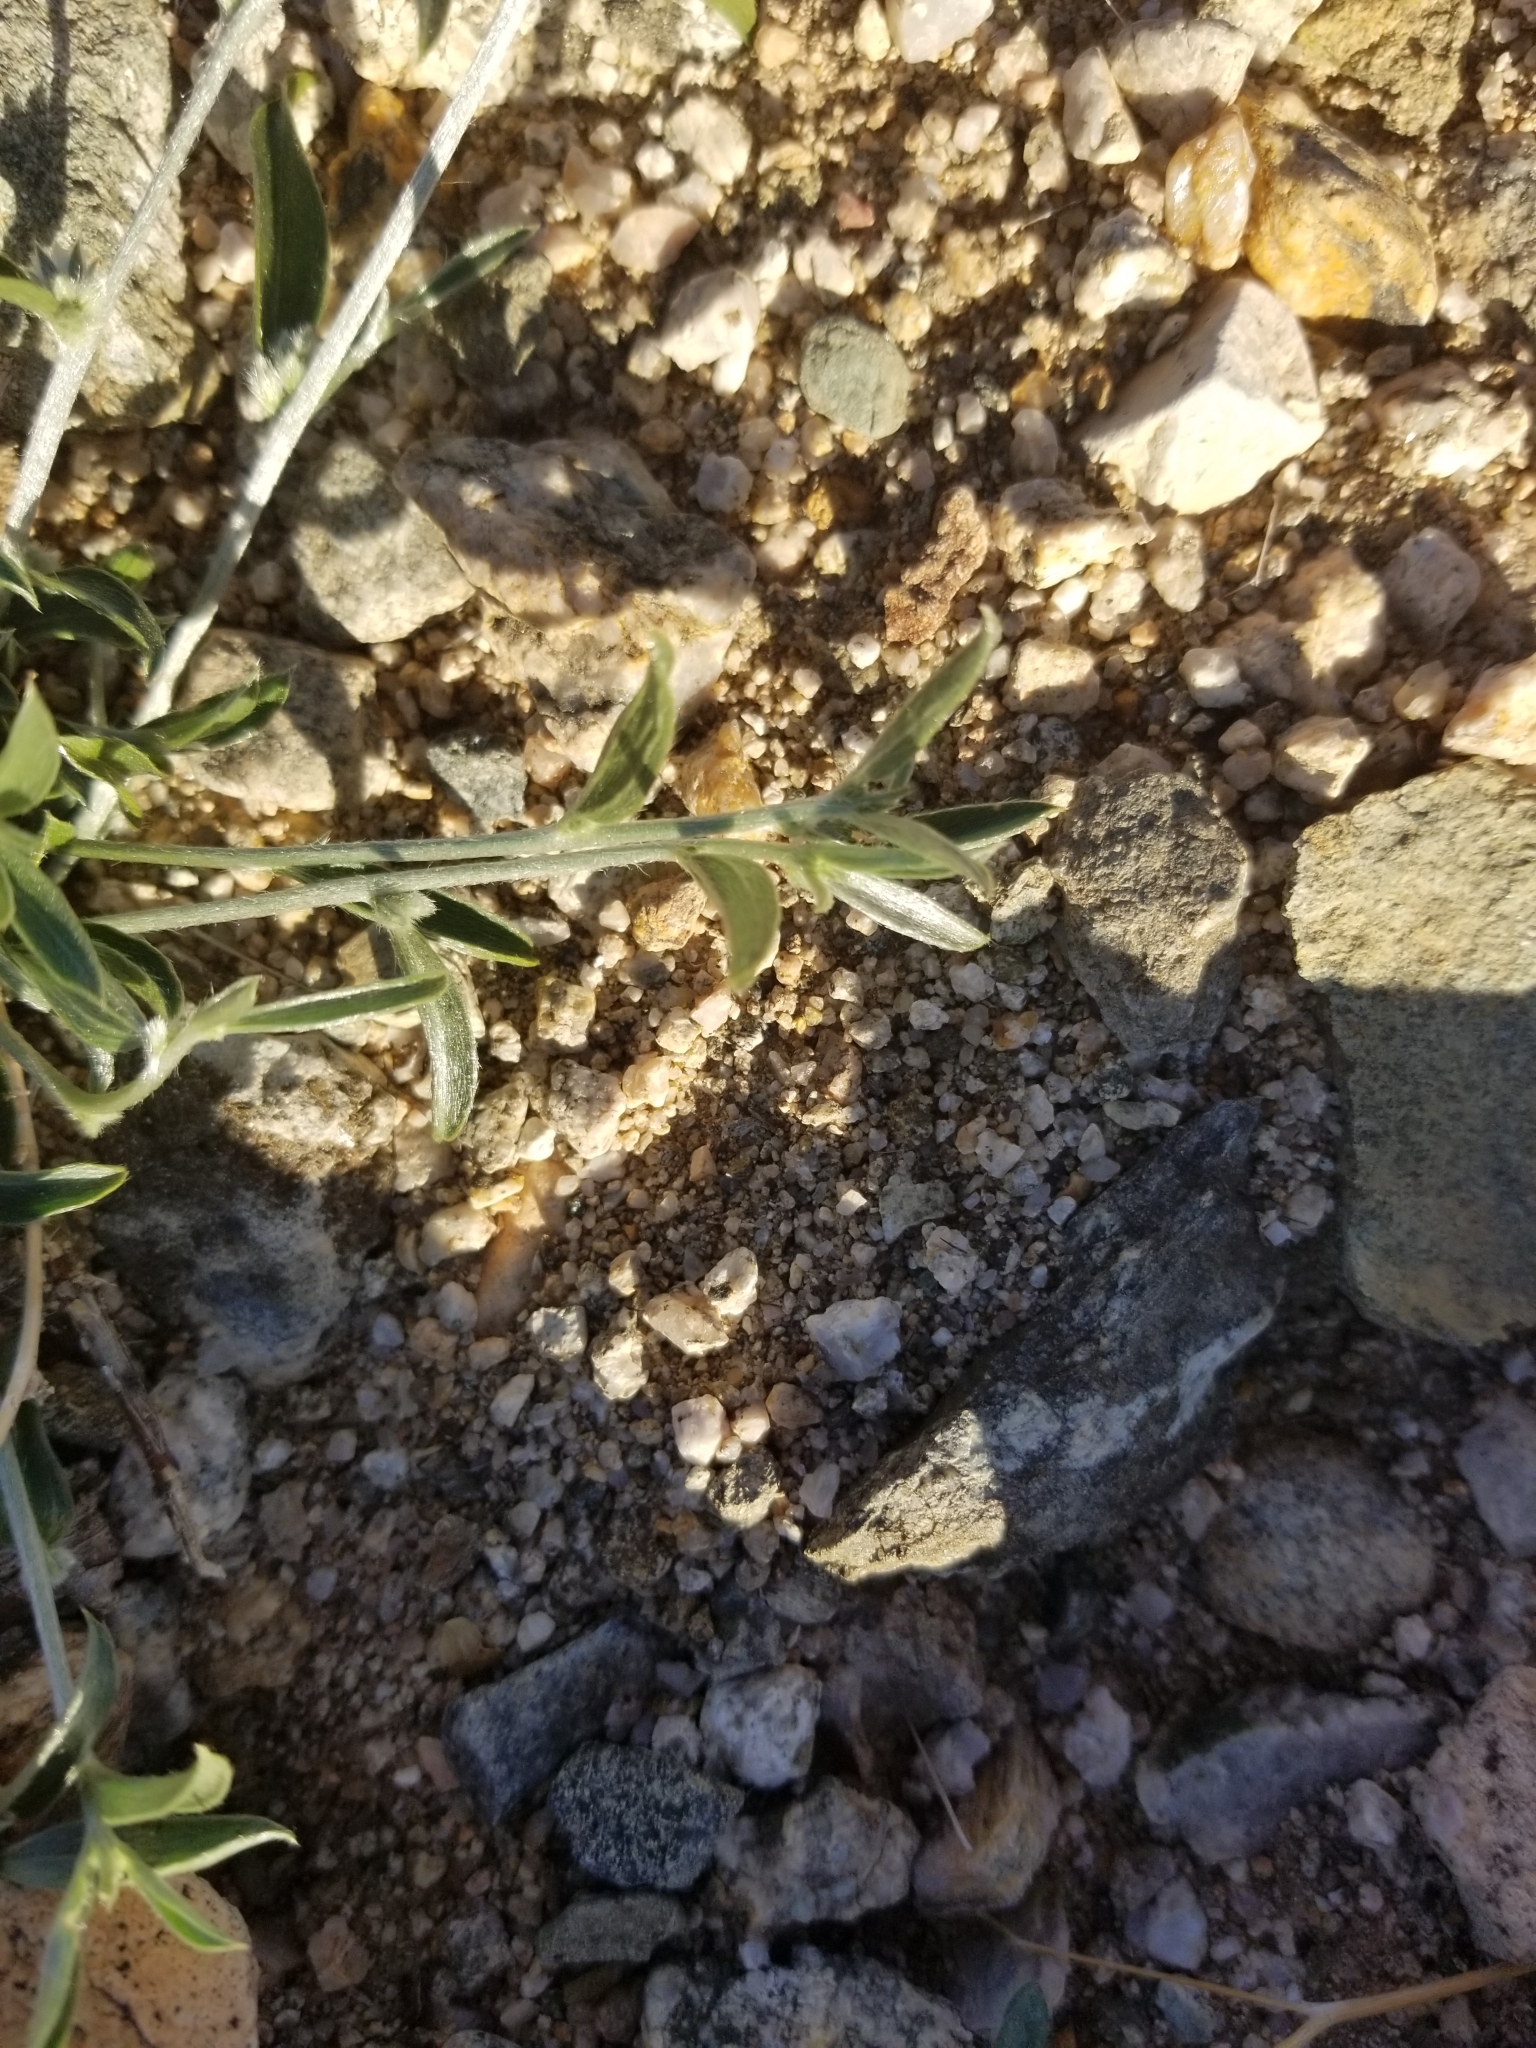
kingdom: Plantae
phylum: Tracheophyta
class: Magnoliopsida
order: Malpighiales
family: Euphorbiaceae
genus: Ditaxis
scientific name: Ditaxis lanceolata
